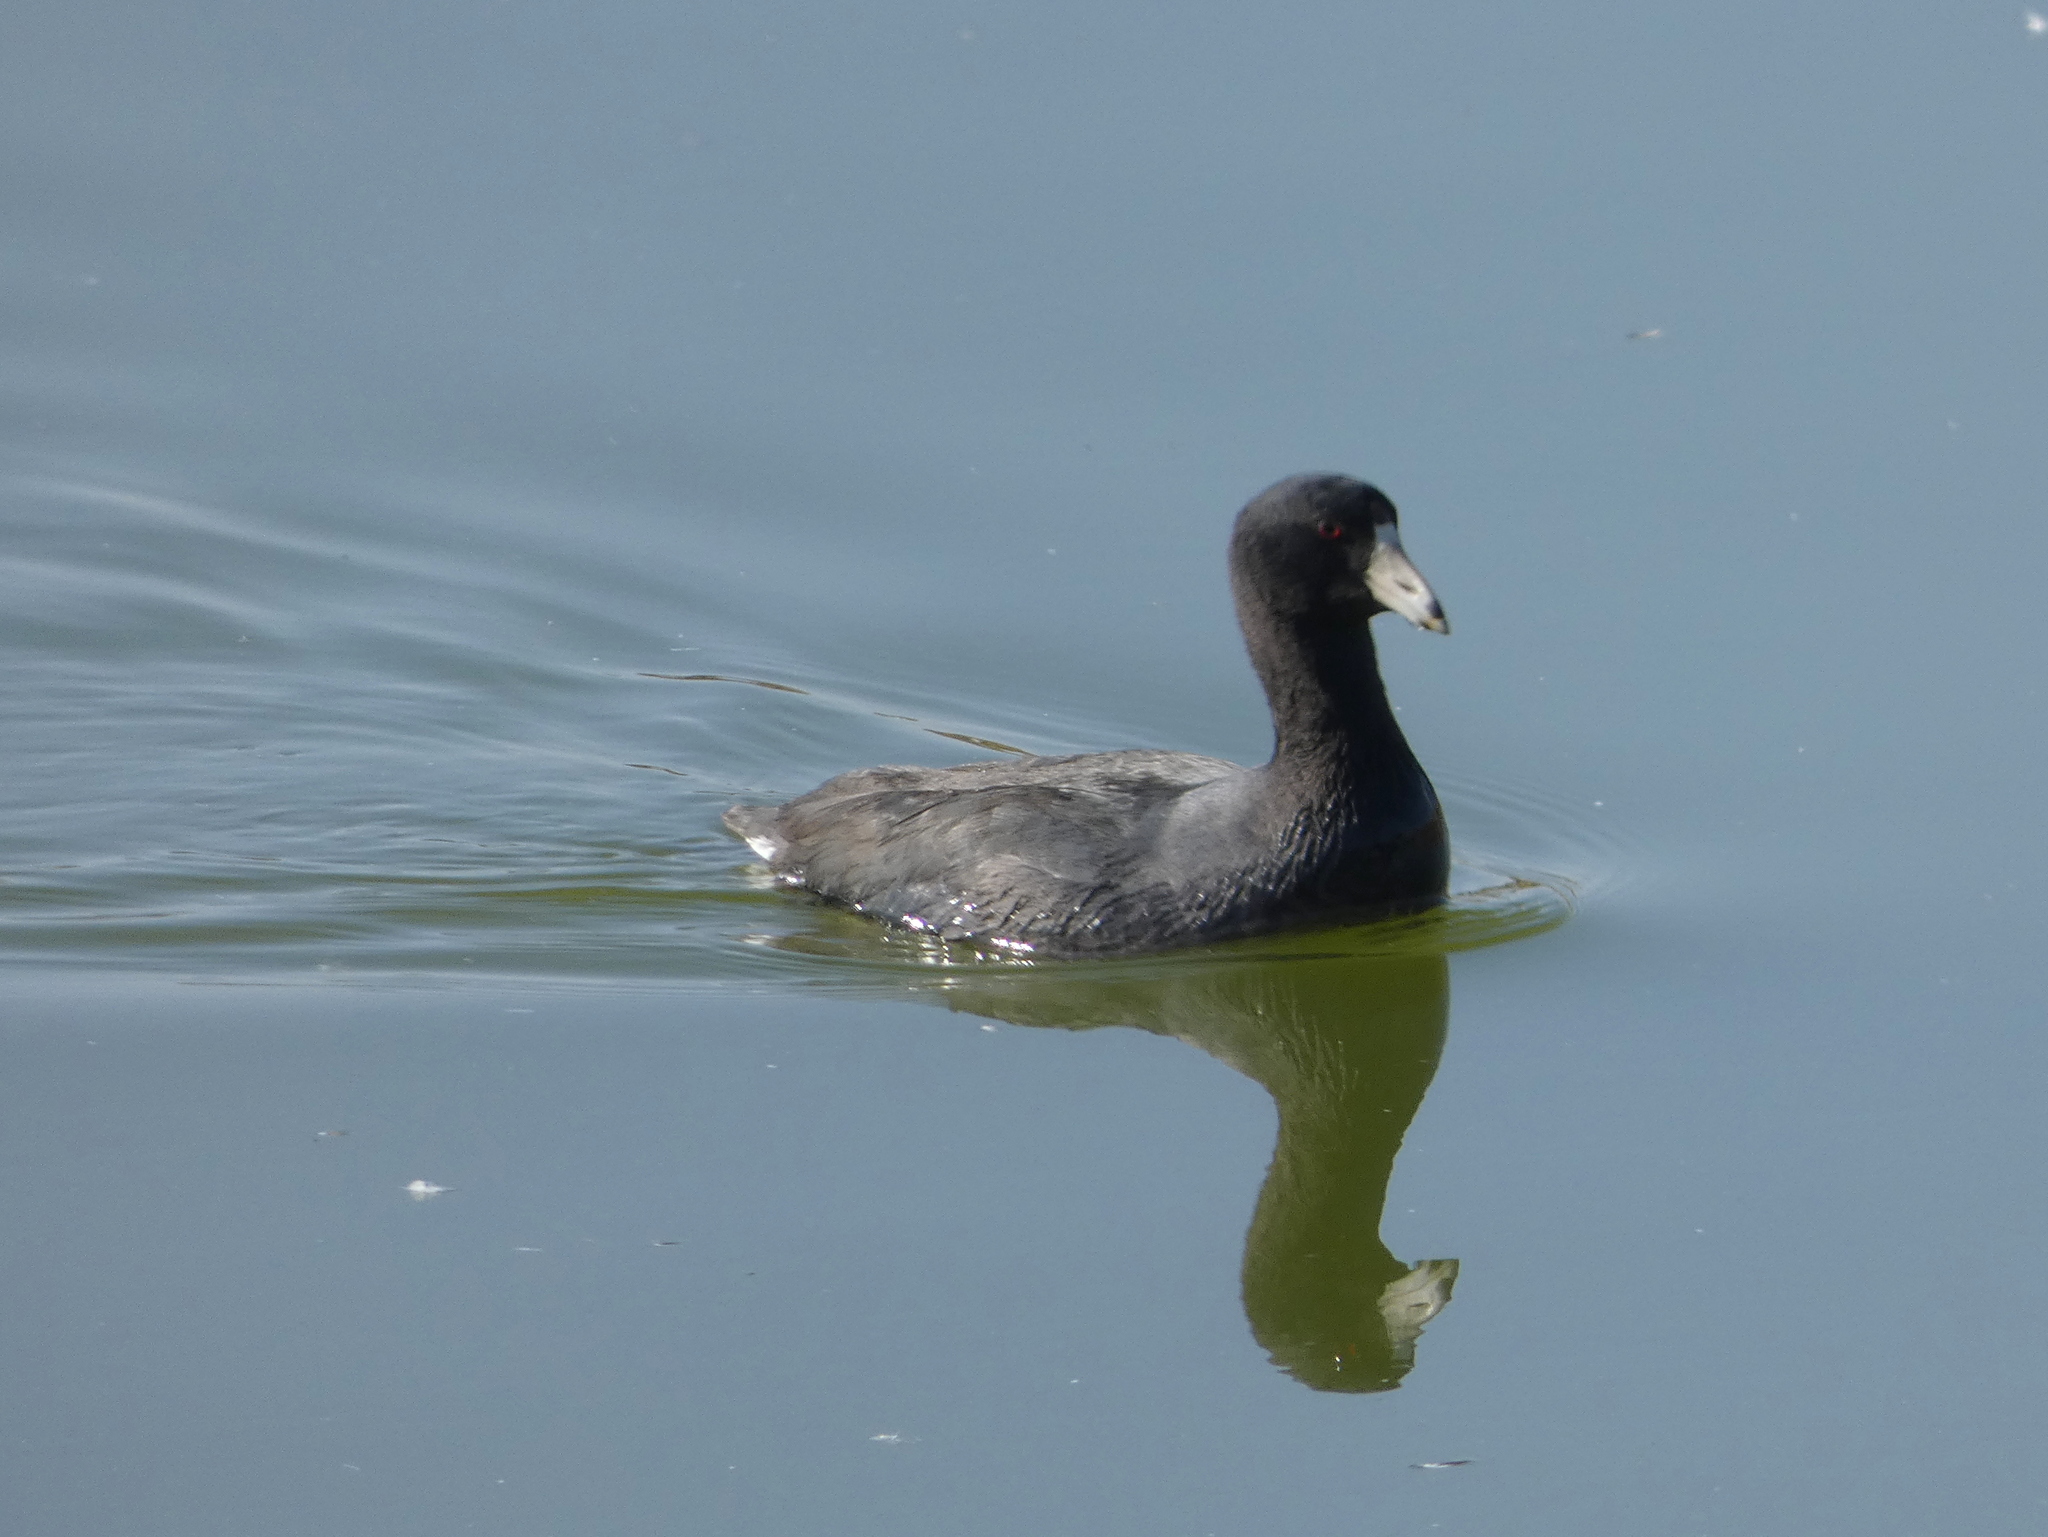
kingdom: Animalia
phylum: Chordata
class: Aves
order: Gruiformes
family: Rallidae
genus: Fulica
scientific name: Fulica americana
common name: American coot
